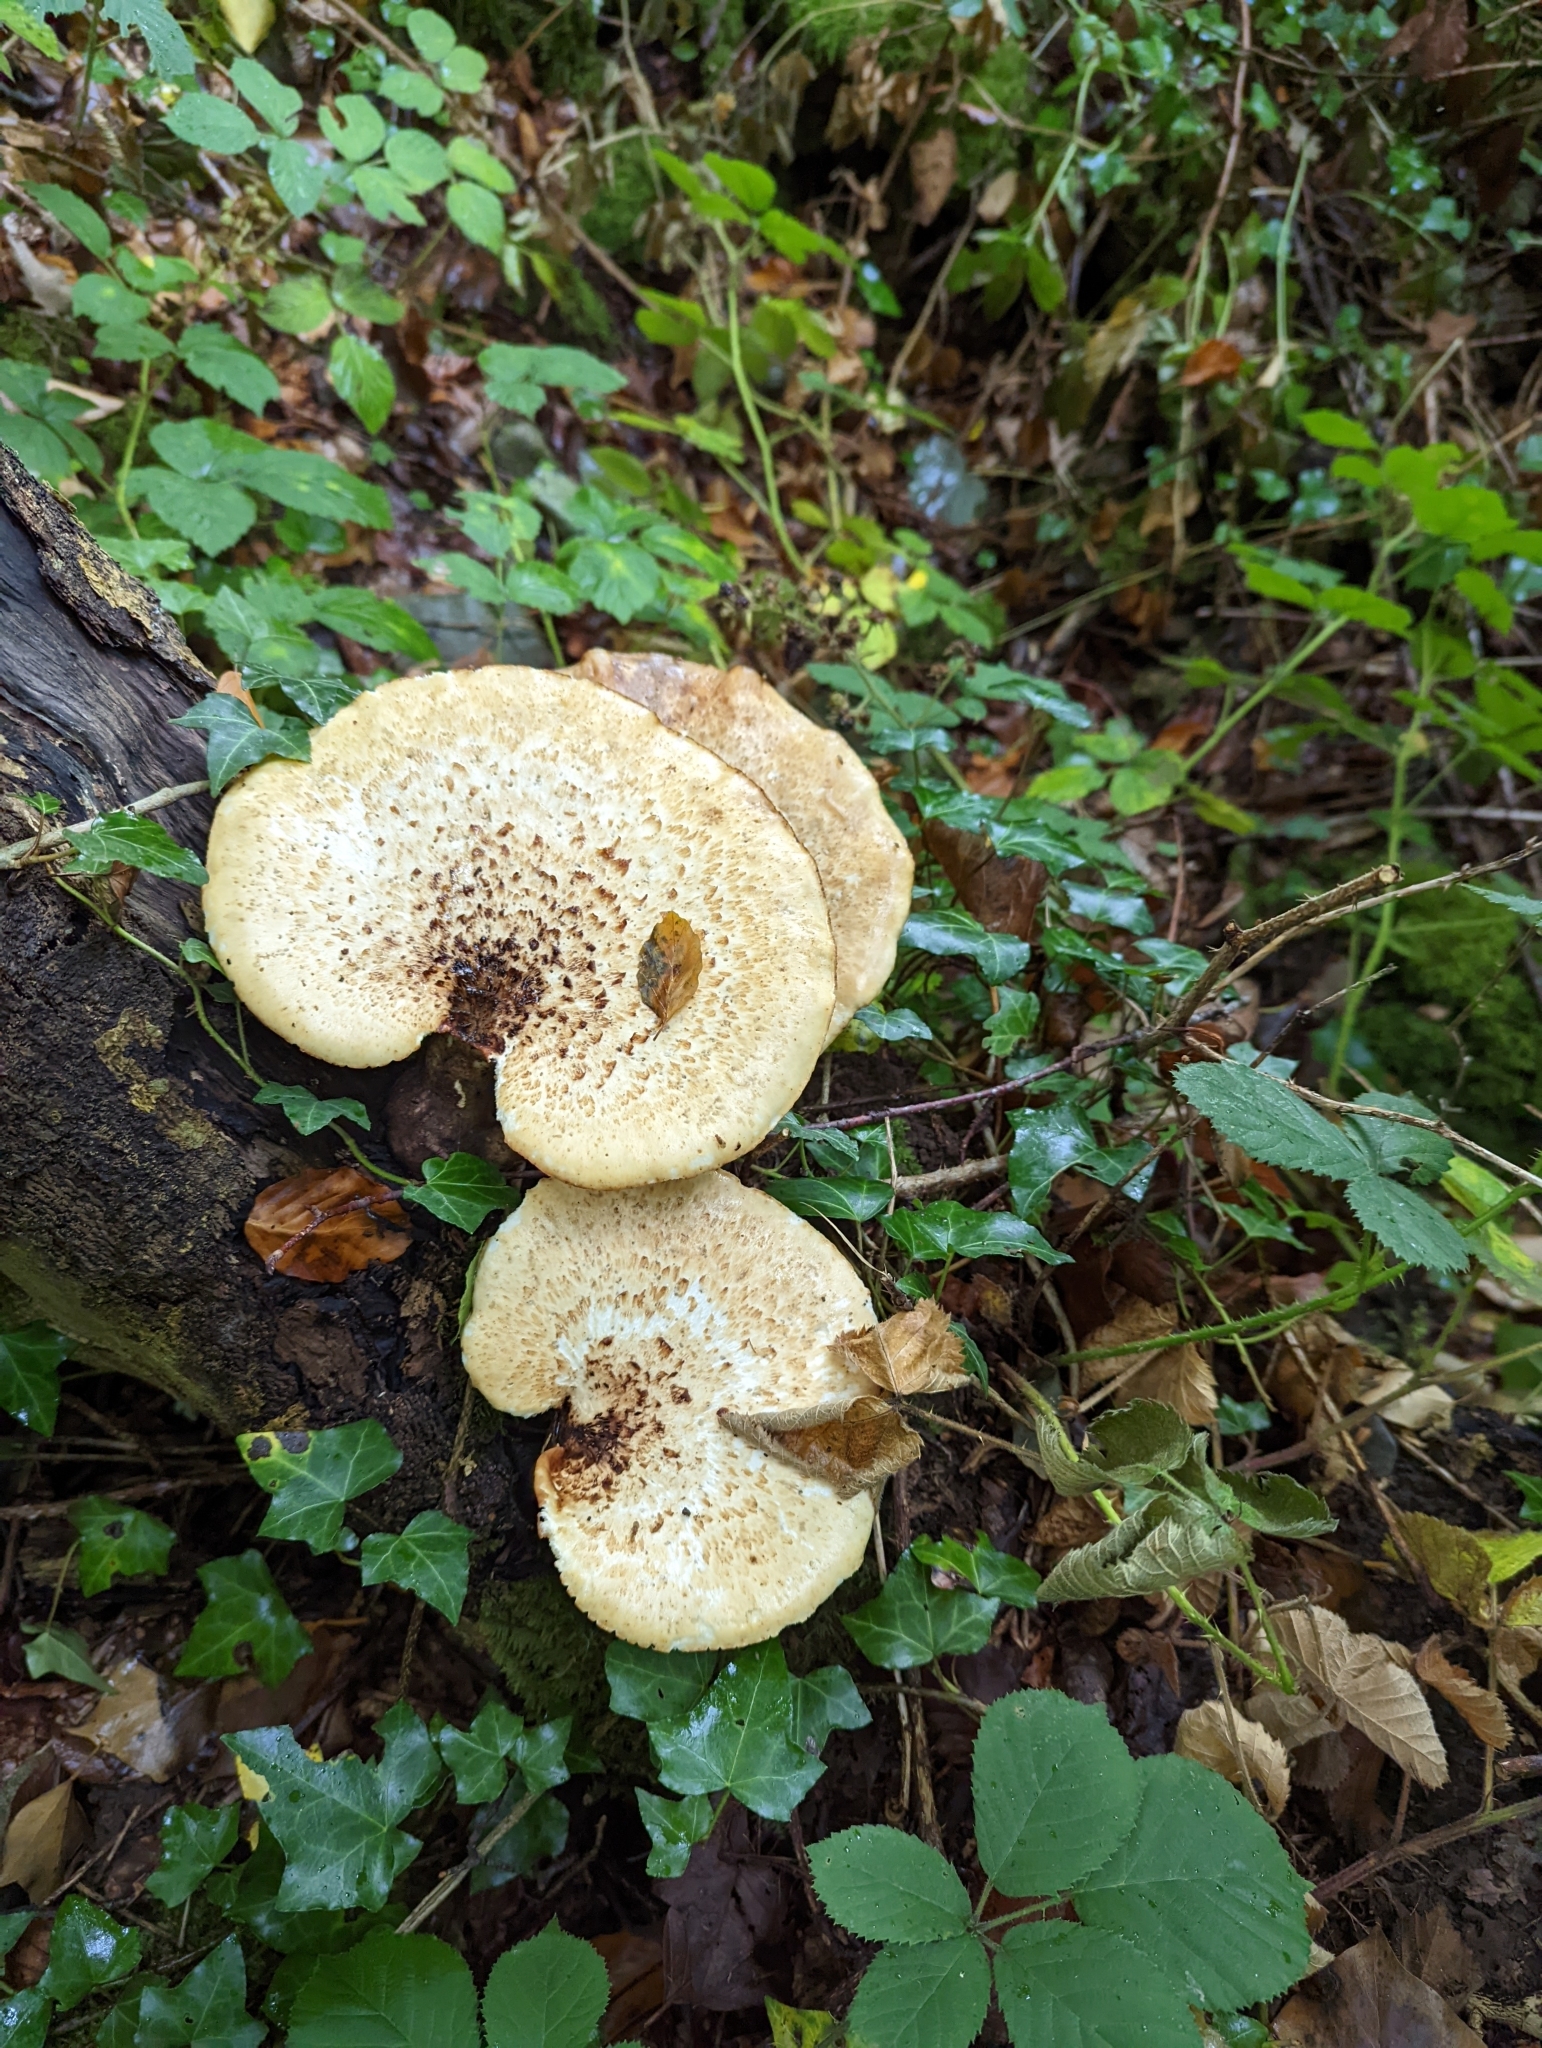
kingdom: Fungi
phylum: Basidiomycota
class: Agaricomycetes
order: Polyporales
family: Polyporaceae
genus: Cerioporus
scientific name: Cerioporus squamosus
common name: Dryad's saddle
